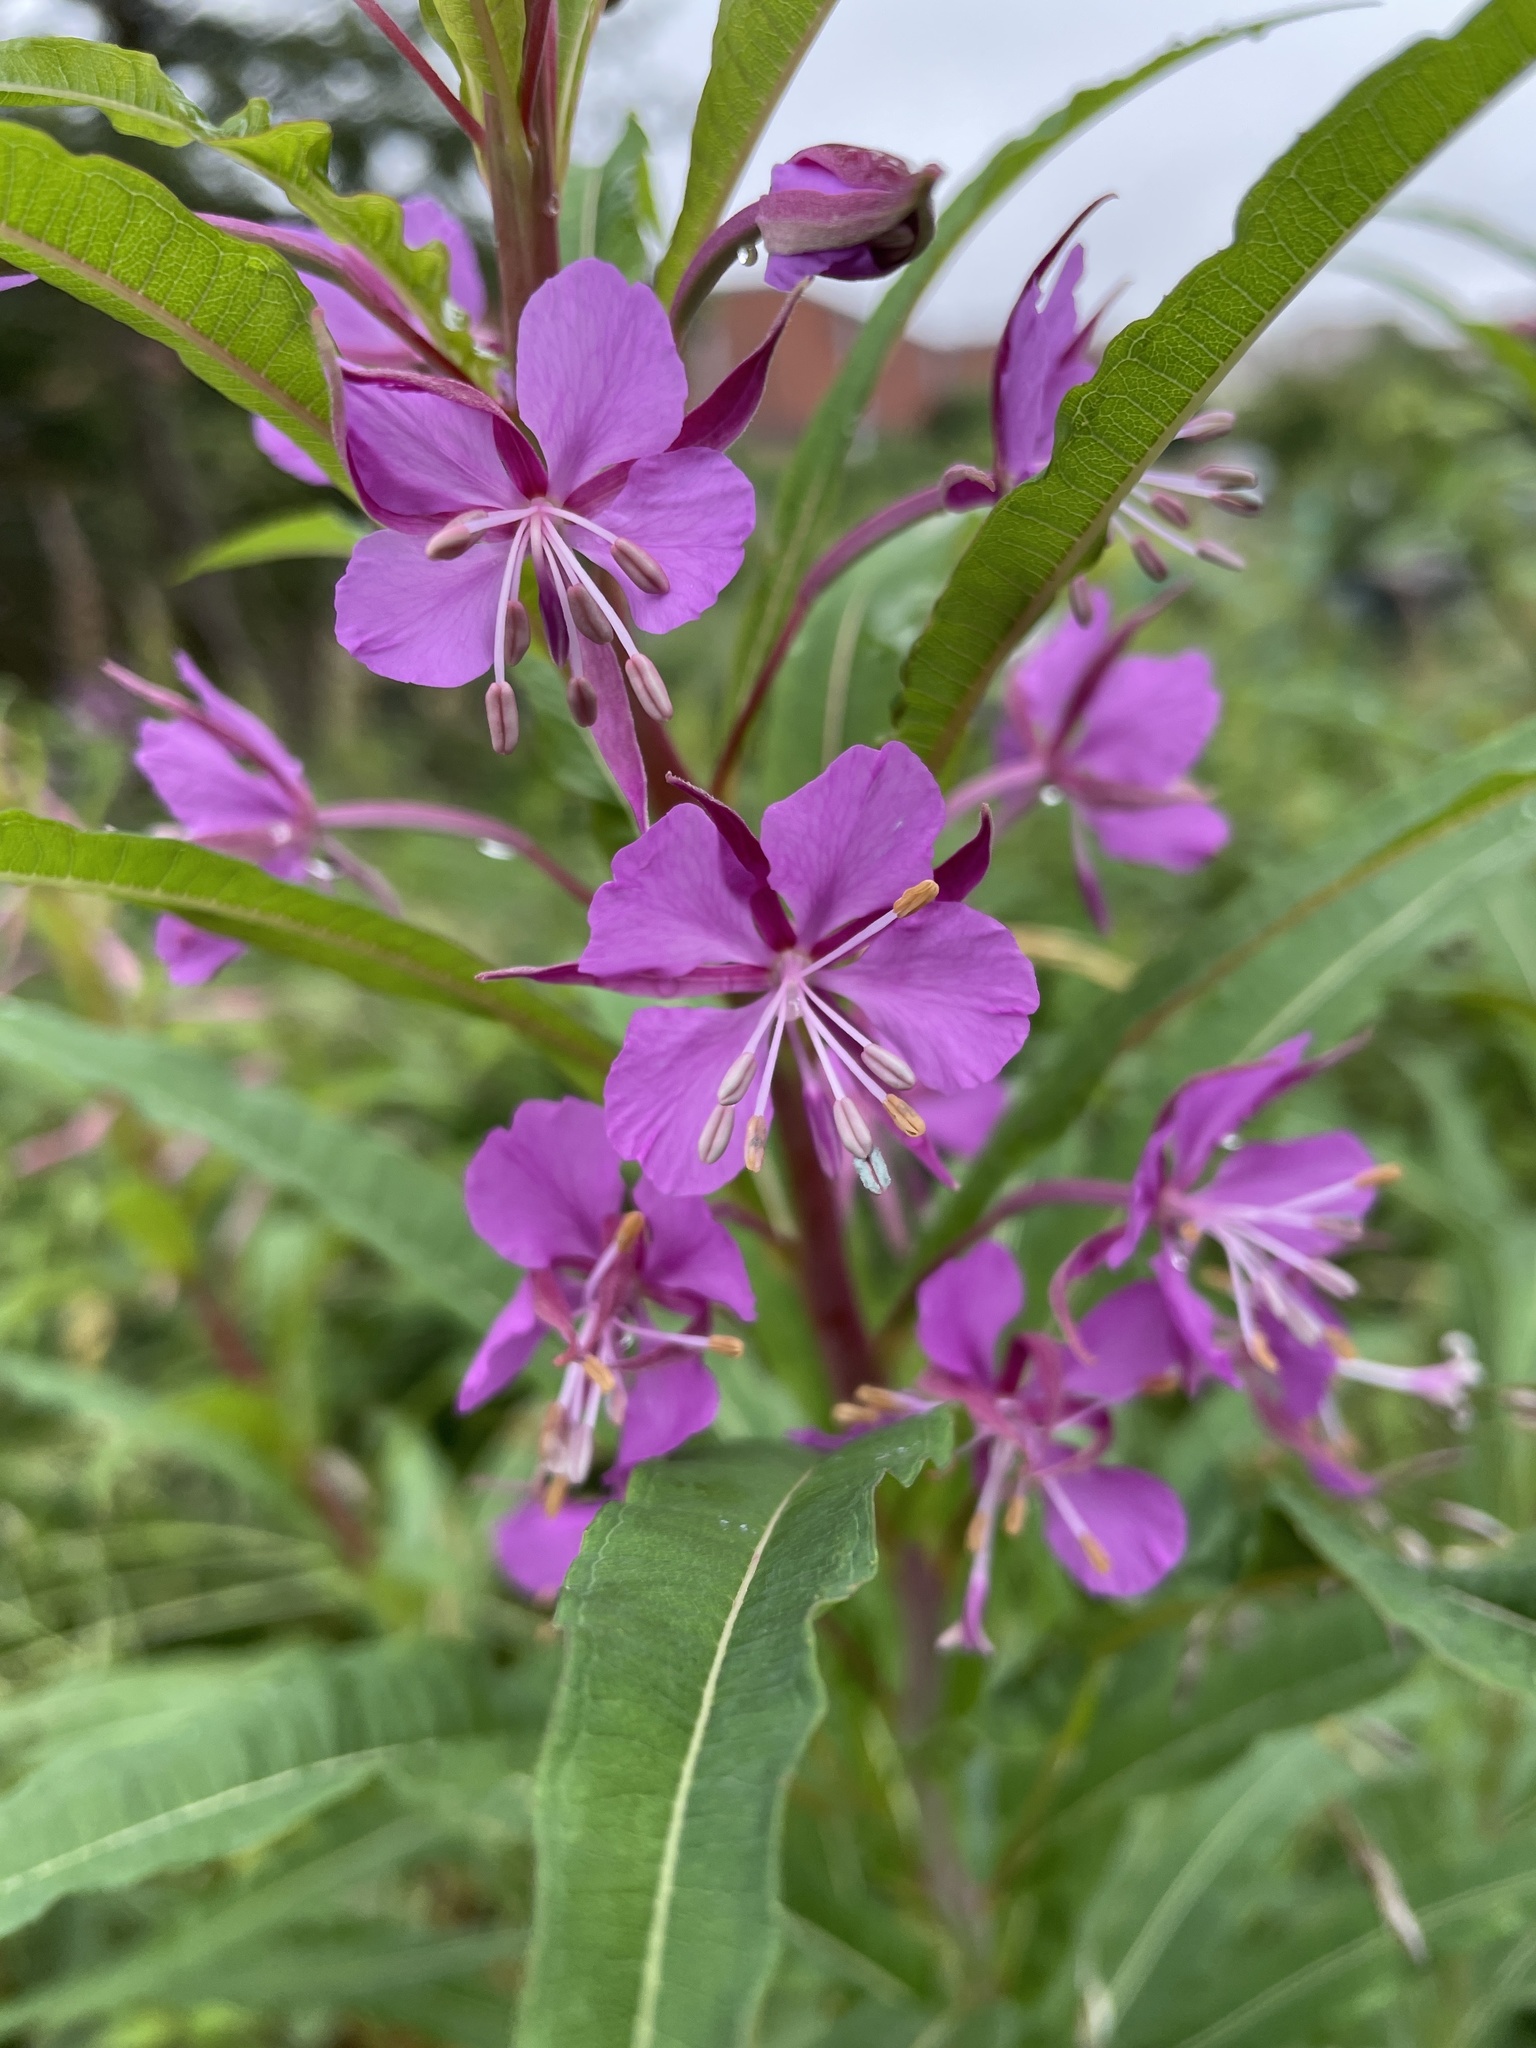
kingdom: Plantae
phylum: Tracheophyta
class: Magnoliopsida
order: Myrtales
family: Onagraceae
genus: Chamaenerion
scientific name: Chamaenerion angustifolium
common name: Fireweed
